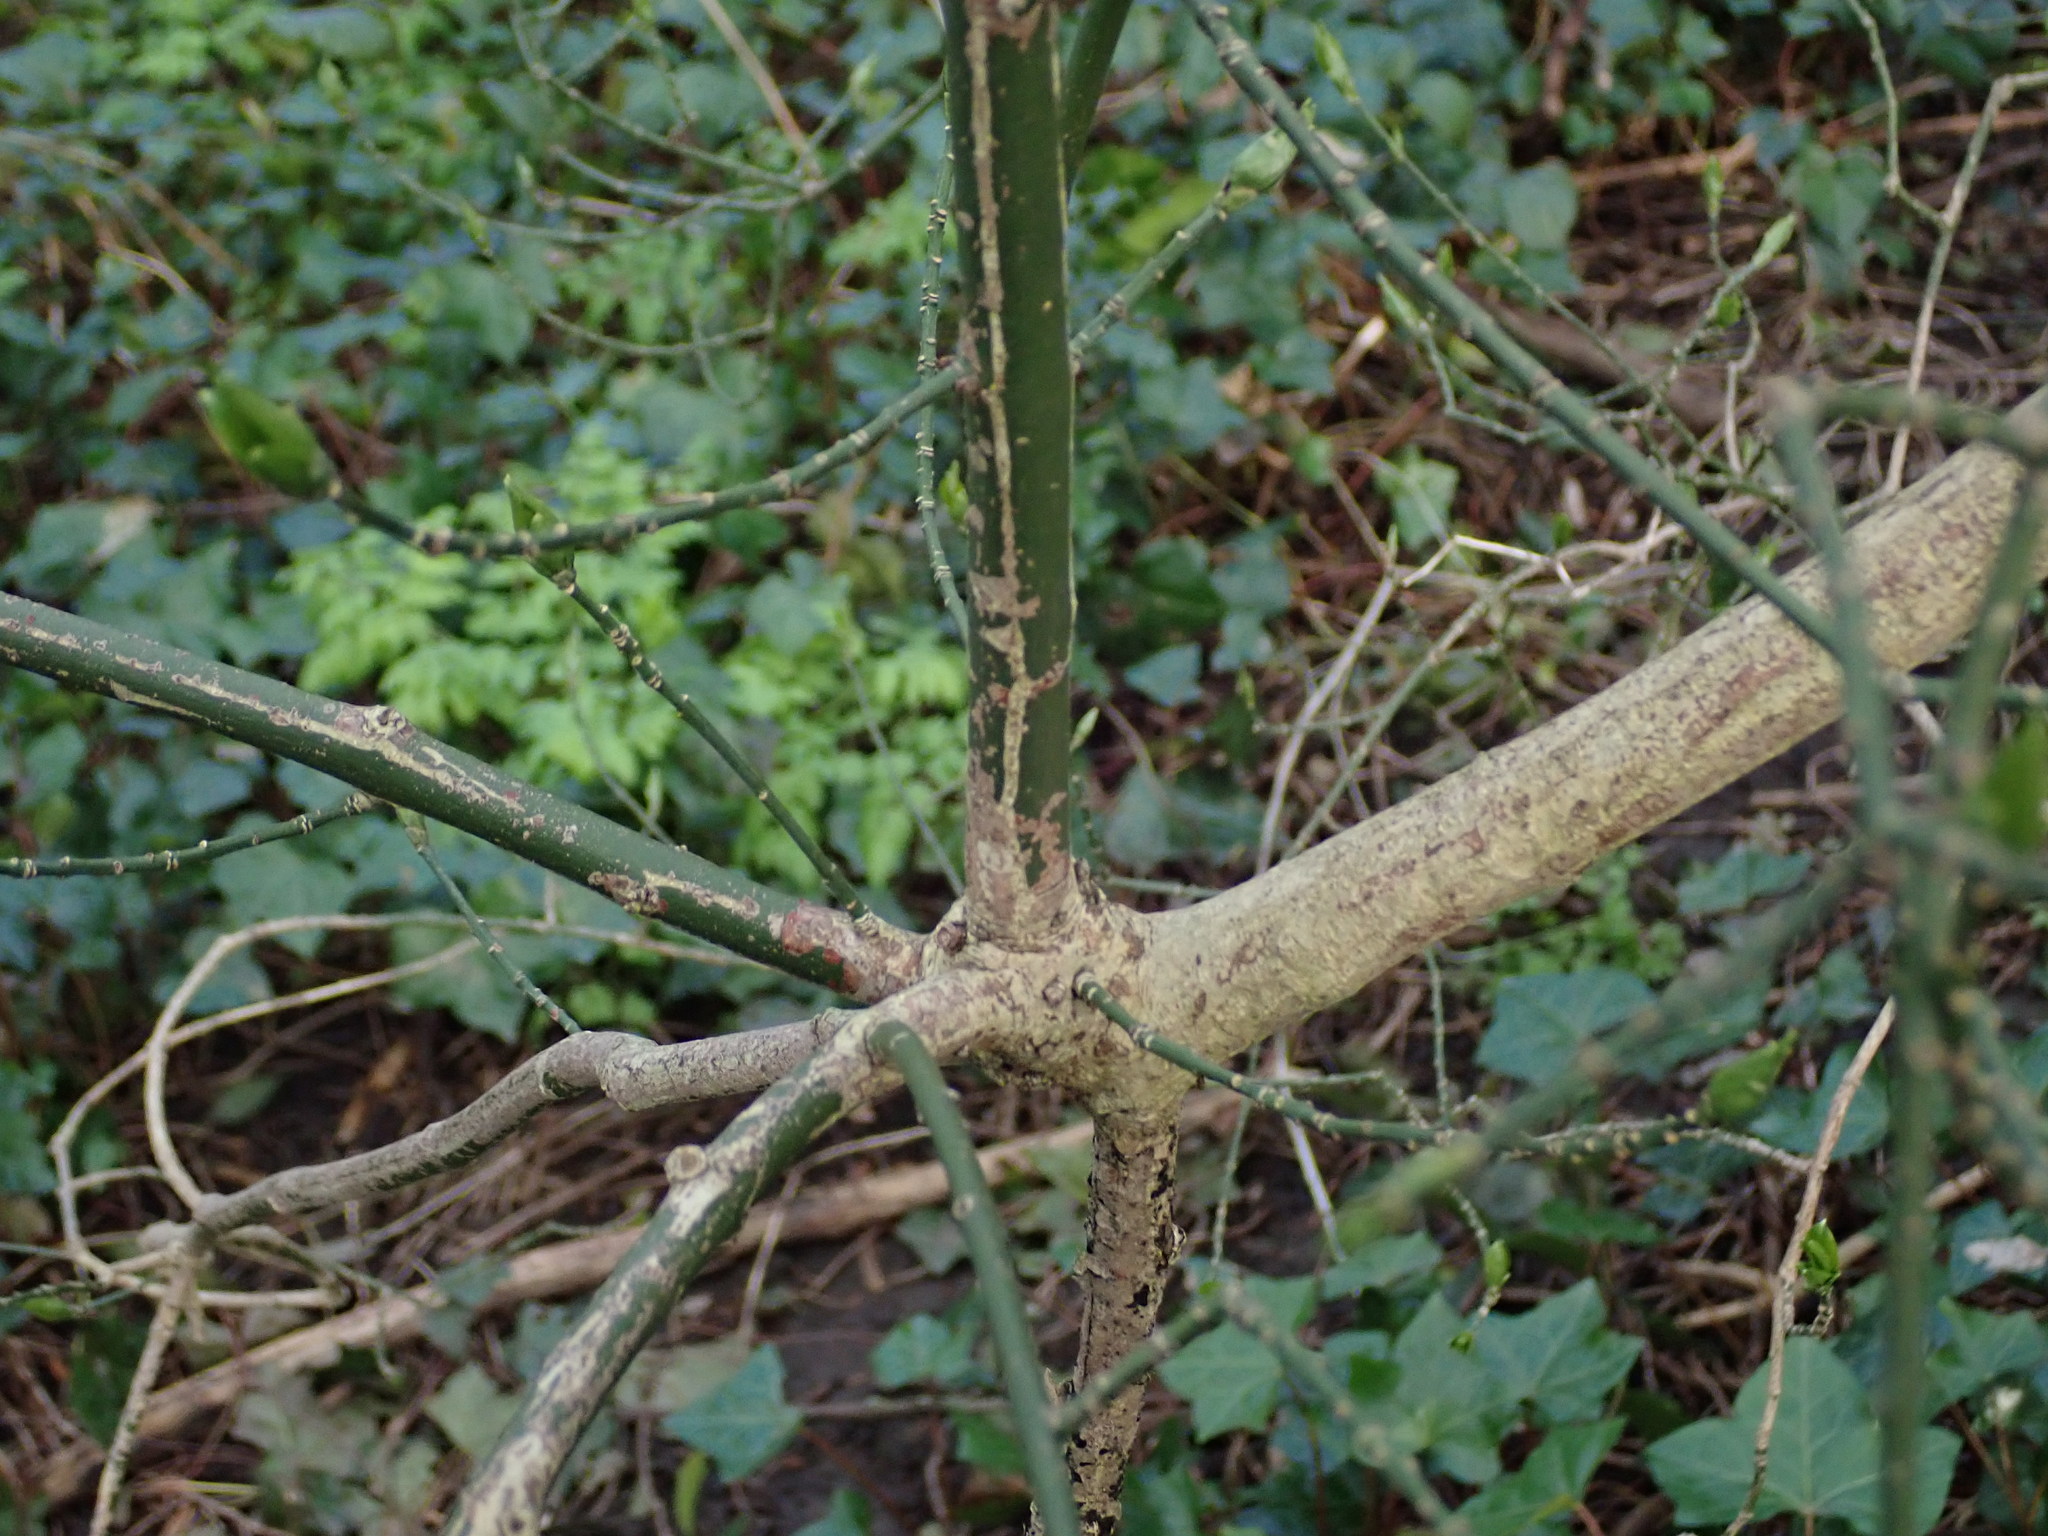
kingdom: Plantae
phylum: Tracheophyta
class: Magnoliopsida
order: Celastrales
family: Celastraceae
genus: Euonymus
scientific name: Euonymus europaeus
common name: Spindle
